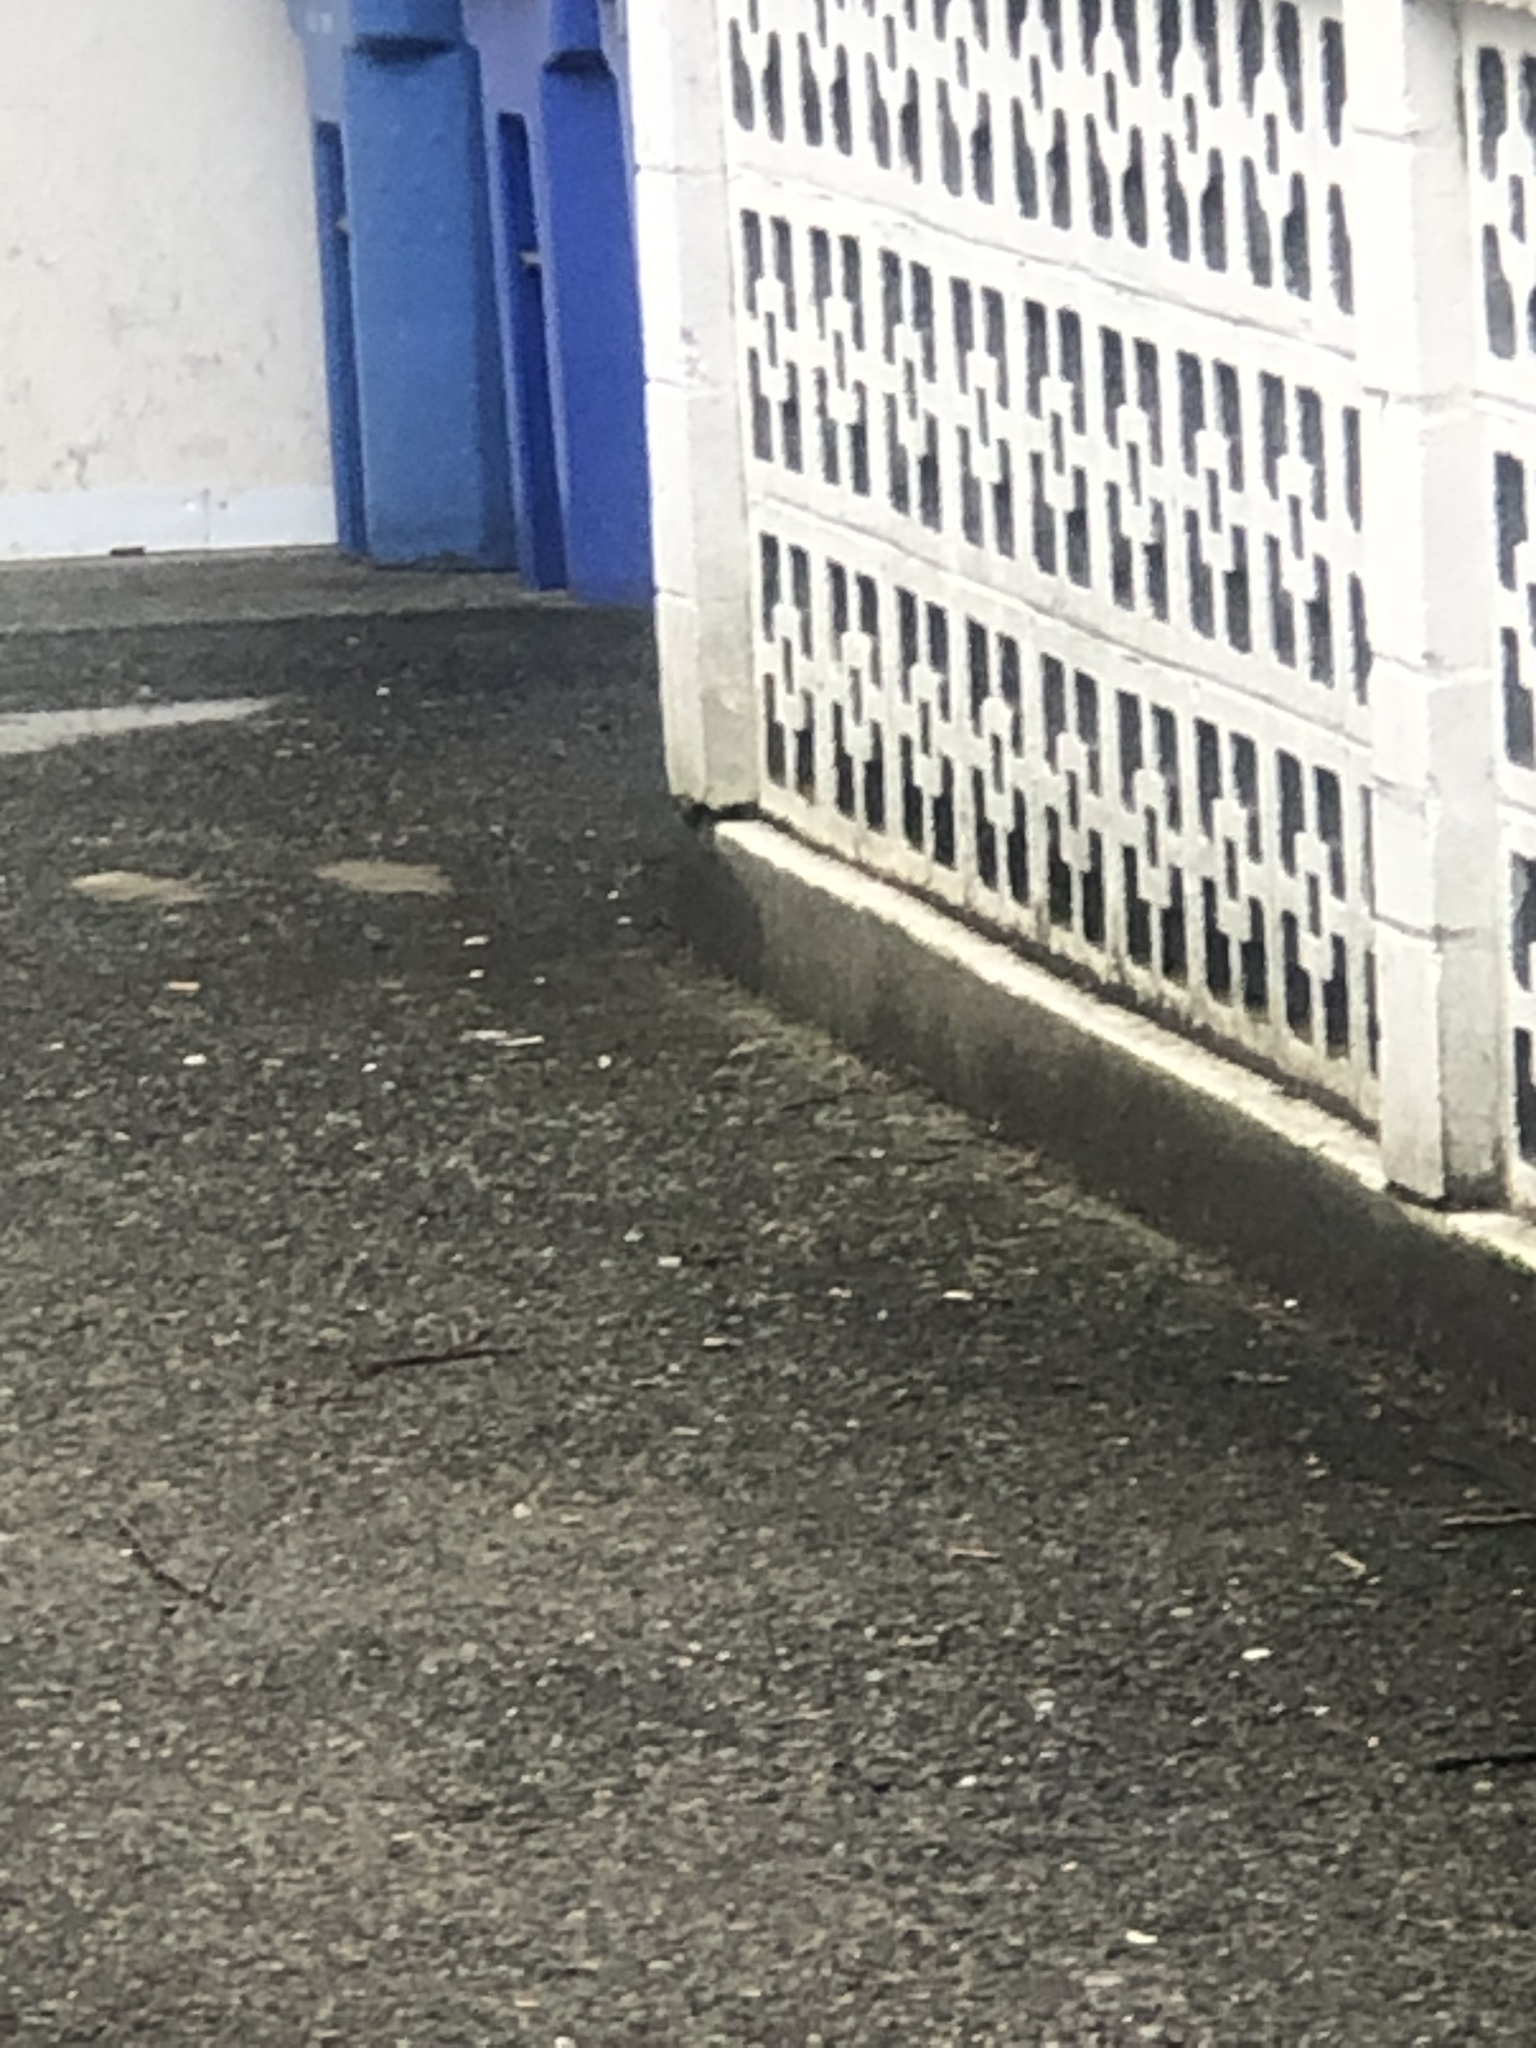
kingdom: Animalia
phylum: Chordata
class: Mammalia
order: Rodentia
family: Sciuridae
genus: Sciurus
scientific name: Sciurus carolinensis
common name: Eastern gray squirrel
